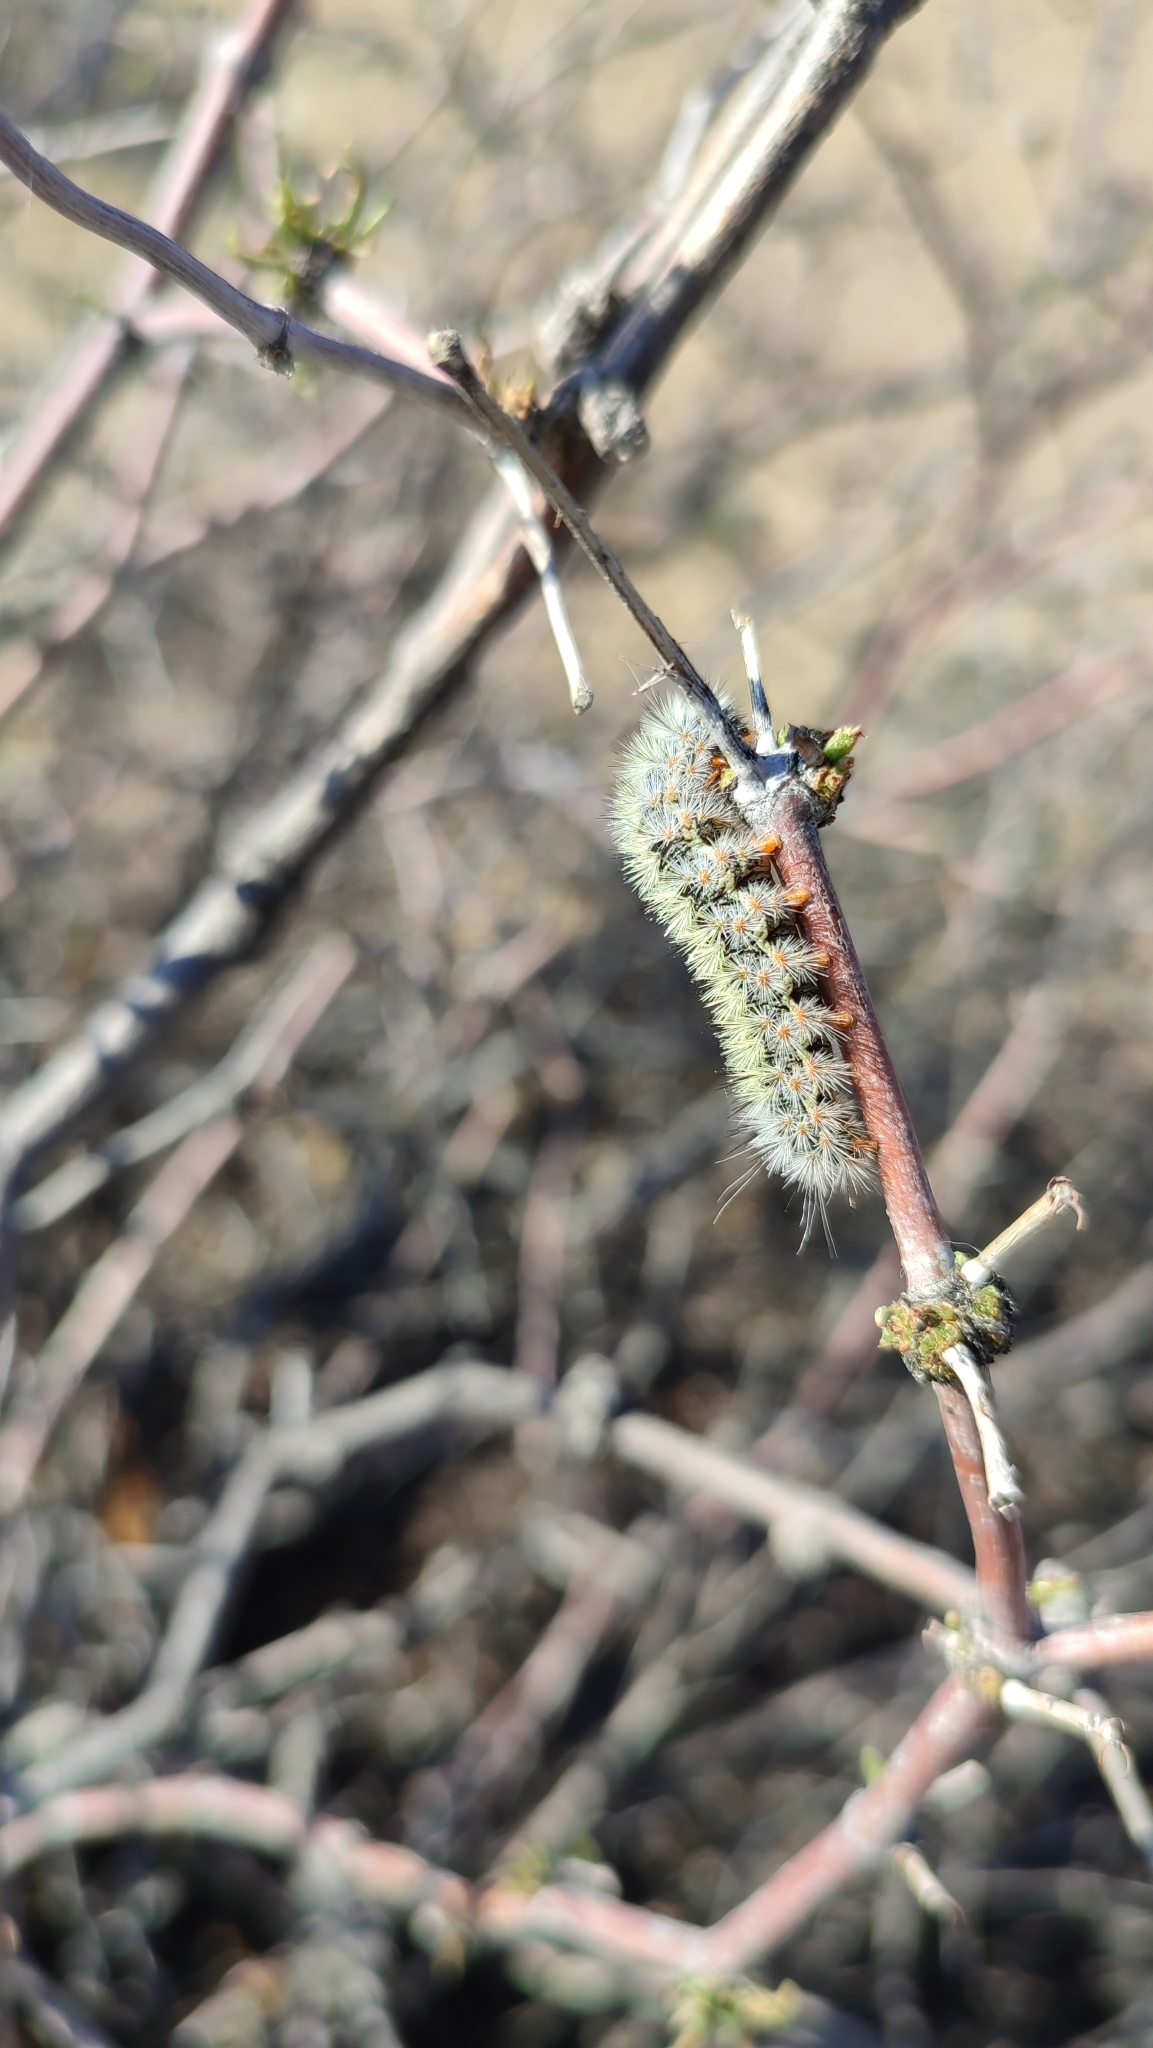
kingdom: Animalia
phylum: Arthropoda
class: Insecta
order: Lepidoptera
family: Erebidae
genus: Lacydes
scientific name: Lacydes spectabilis
